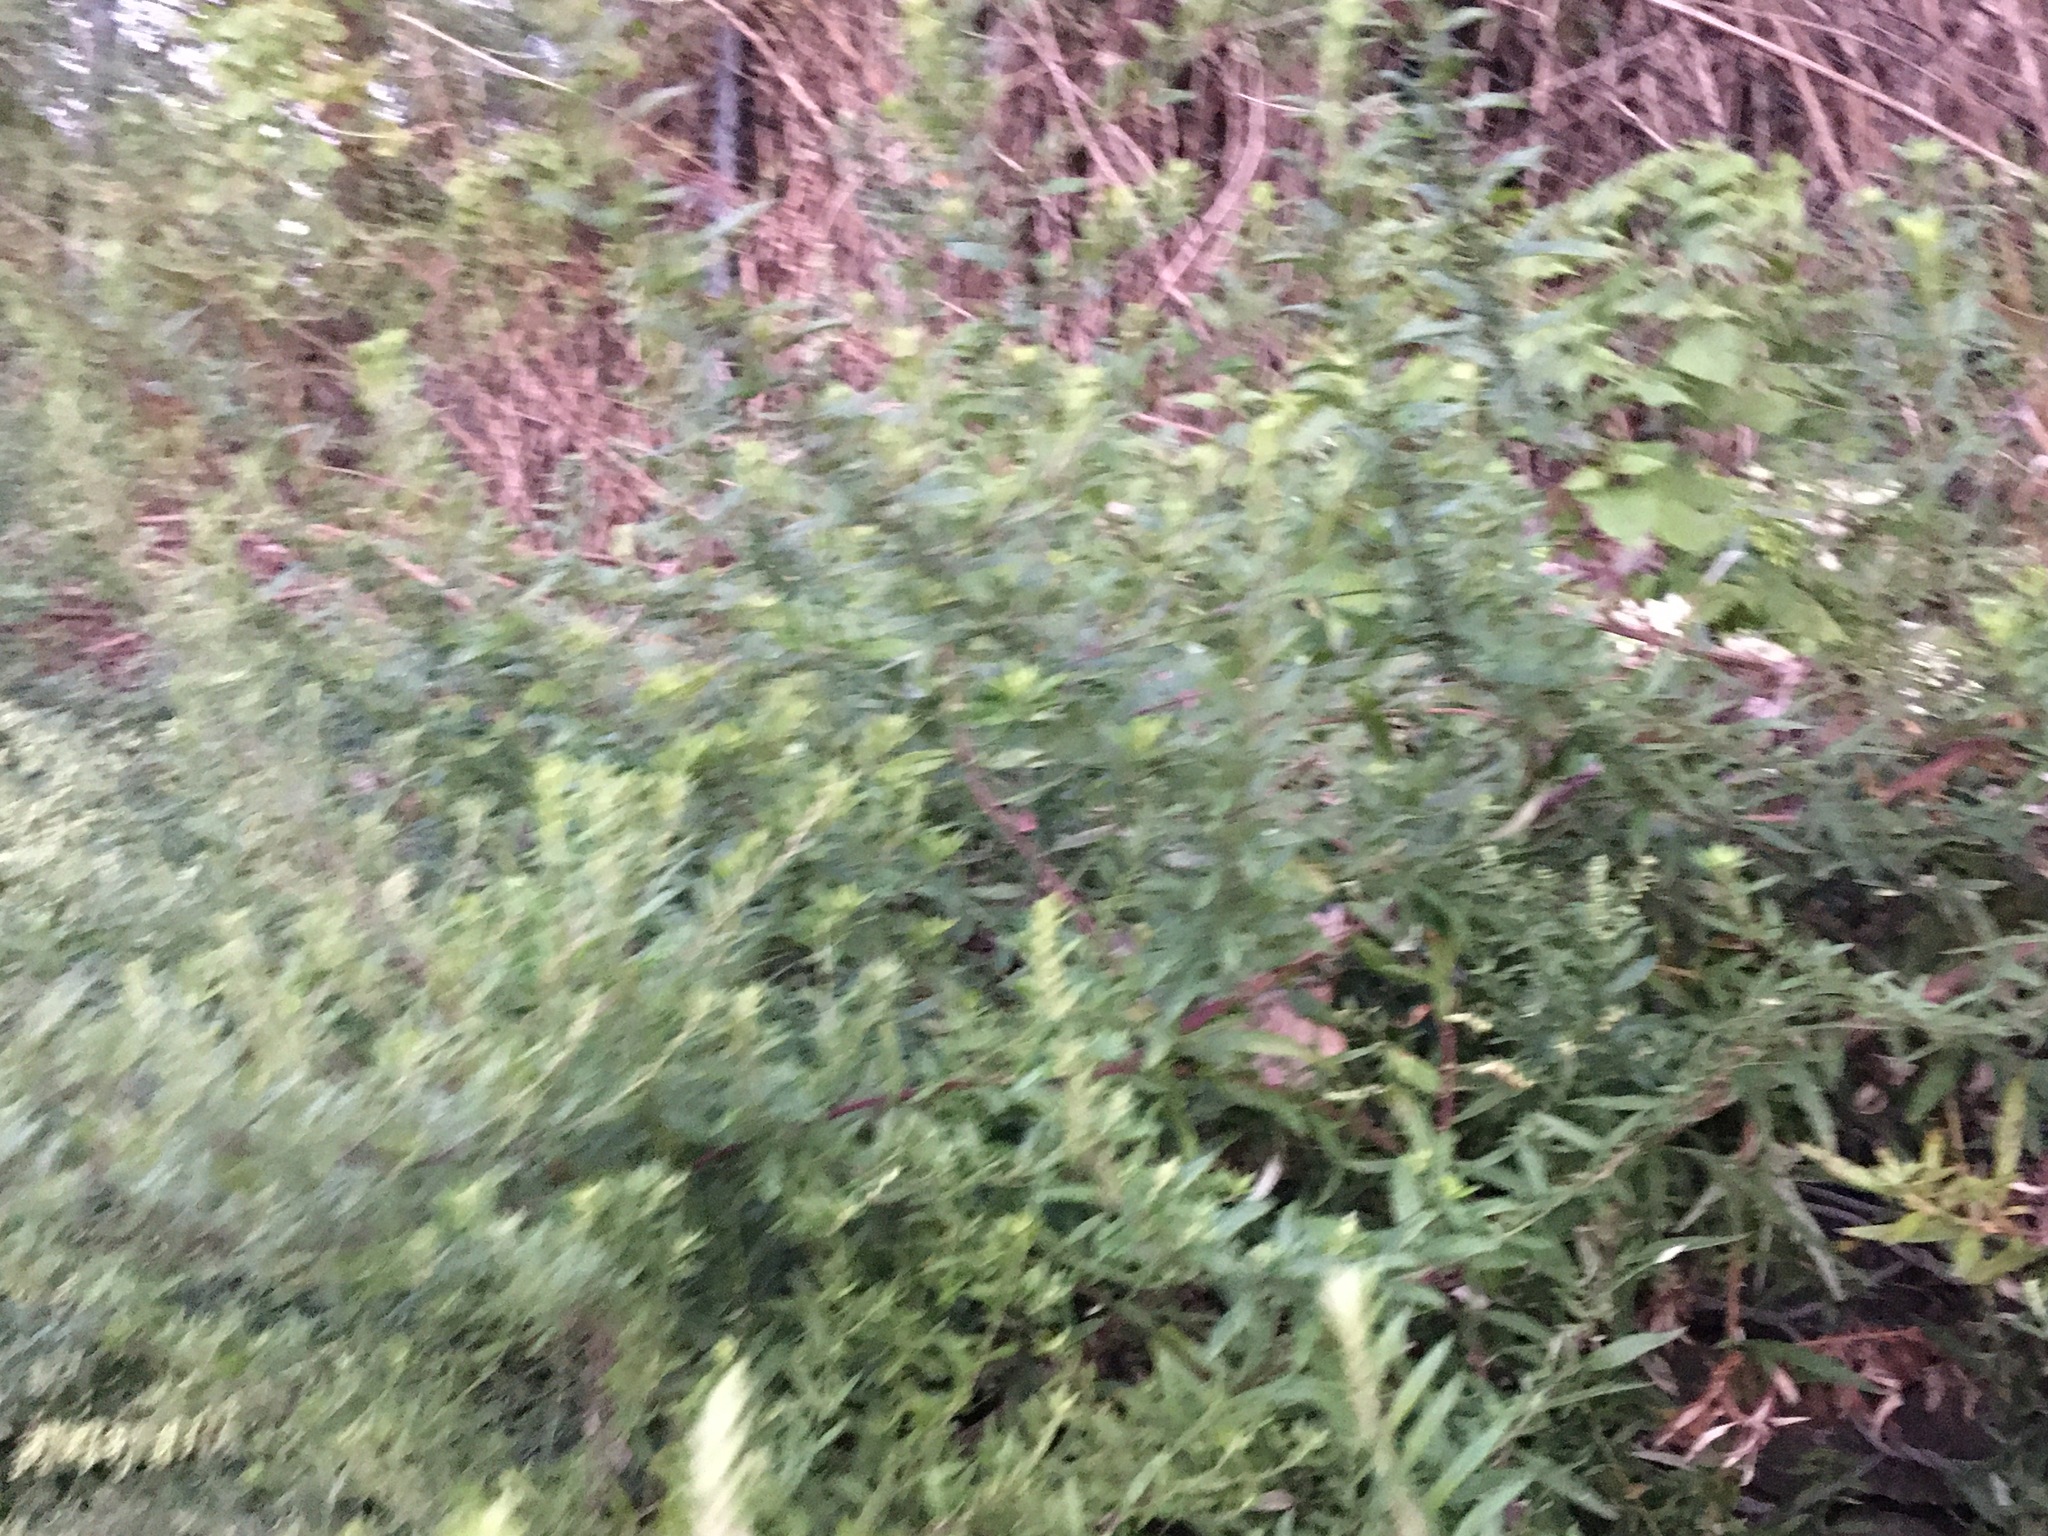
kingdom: Plantae
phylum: Tracheophyta
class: Magnoliopsida
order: Asterales
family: Asteraceae
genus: Artemisia
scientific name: Artemisia vulgaris
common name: Mugwort
